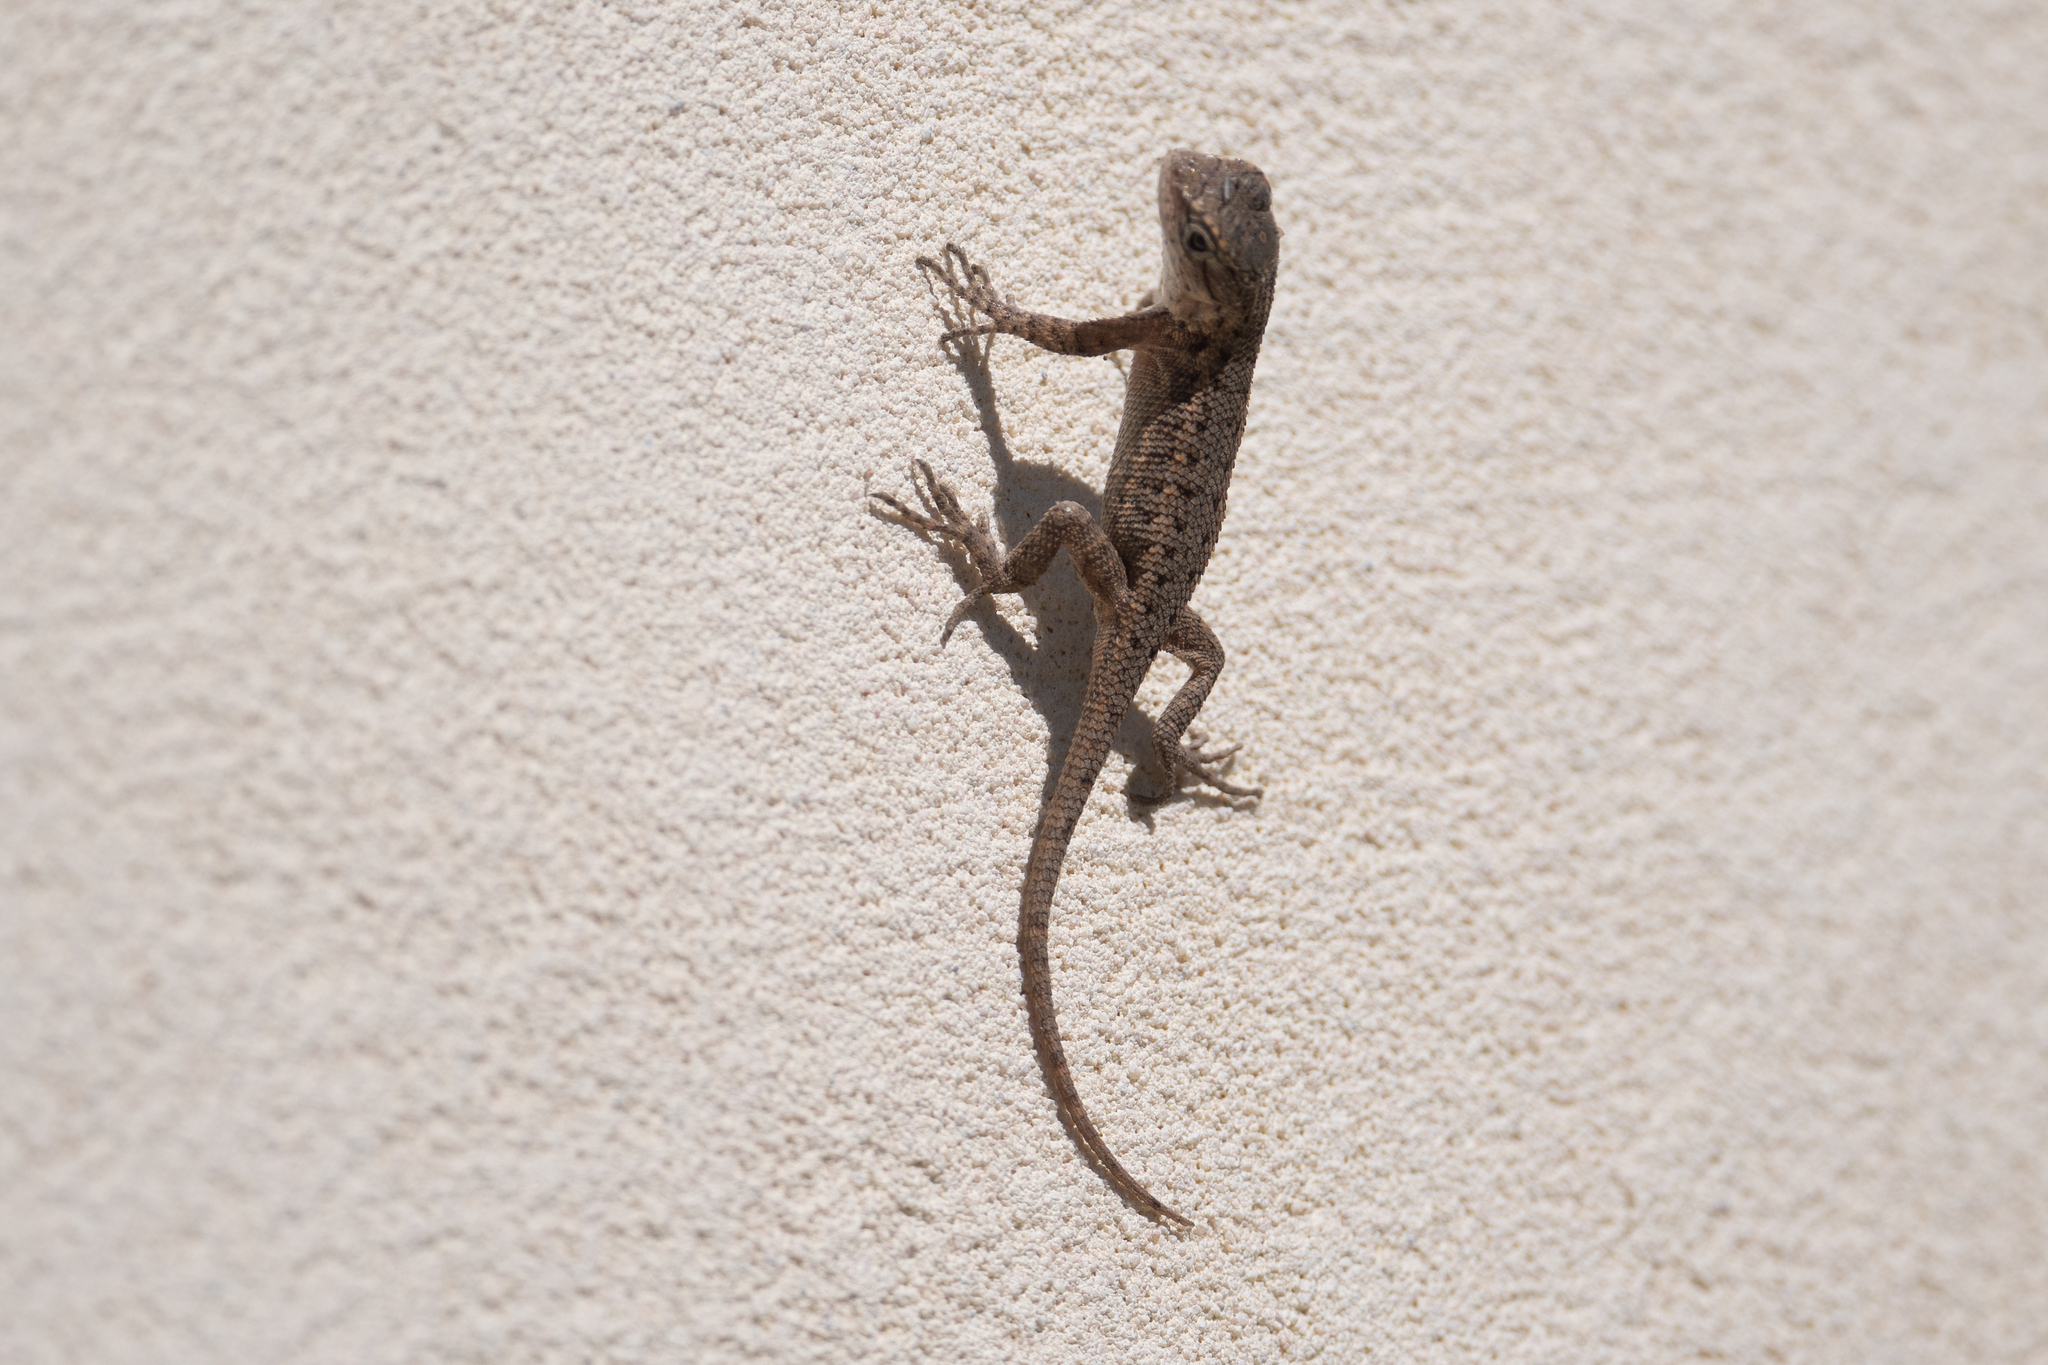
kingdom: Animalia
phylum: Chordata
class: Squamata
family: Phrynosomatidae
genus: Sceloporus
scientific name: Sceloporus occidentalis
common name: Western fence lizard
